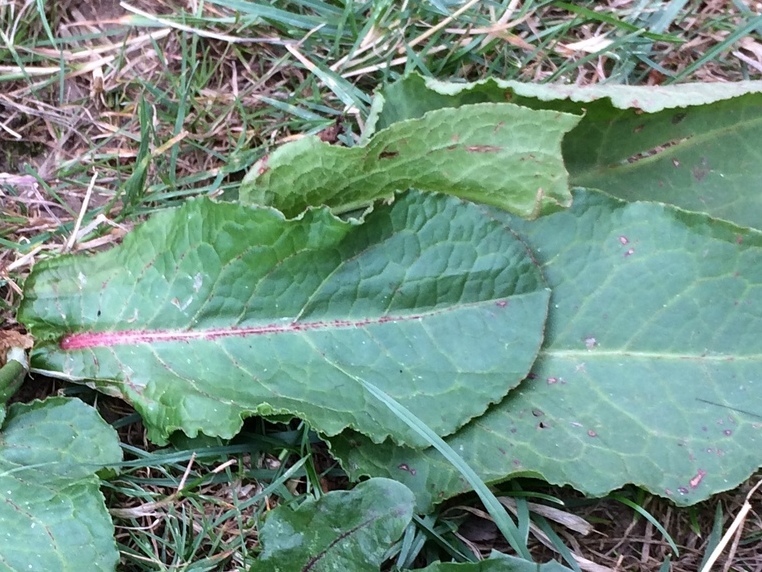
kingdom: Fungi
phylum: Ascomycota
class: Dothideomycetes
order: Mycosphaerellales
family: Mycosphaerellaceae
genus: Ramularia
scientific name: Ramularia rubella
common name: Red dock spot
